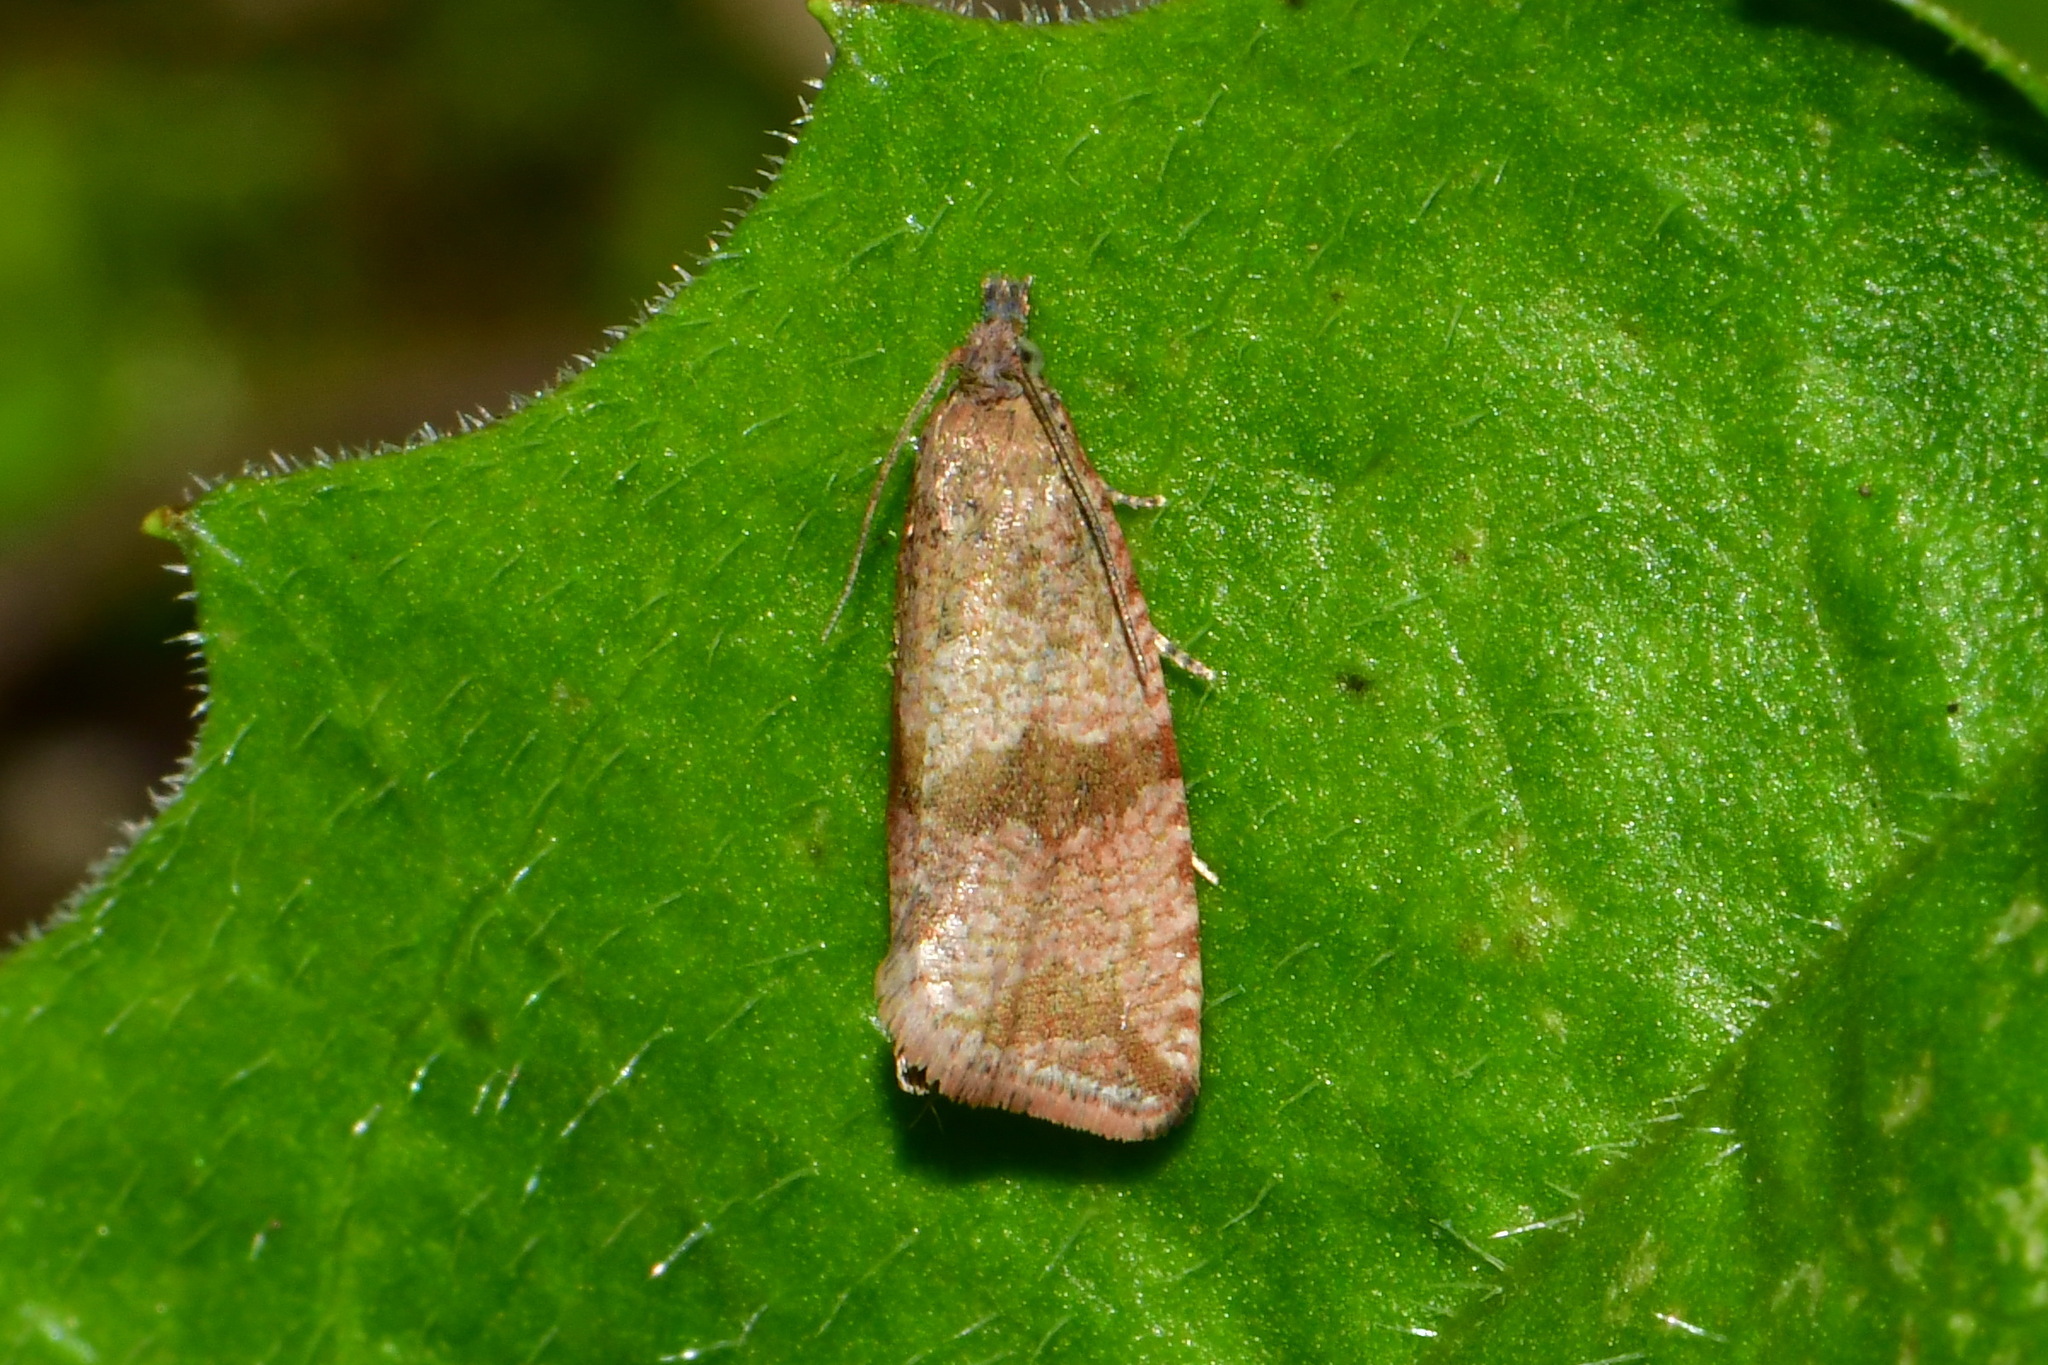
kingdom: Animalia
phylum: Arthropoda
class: Insecta
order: Lepidoptera
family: Tortricidae
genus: Celypha
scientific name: Celypha striana
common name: Barred marble
